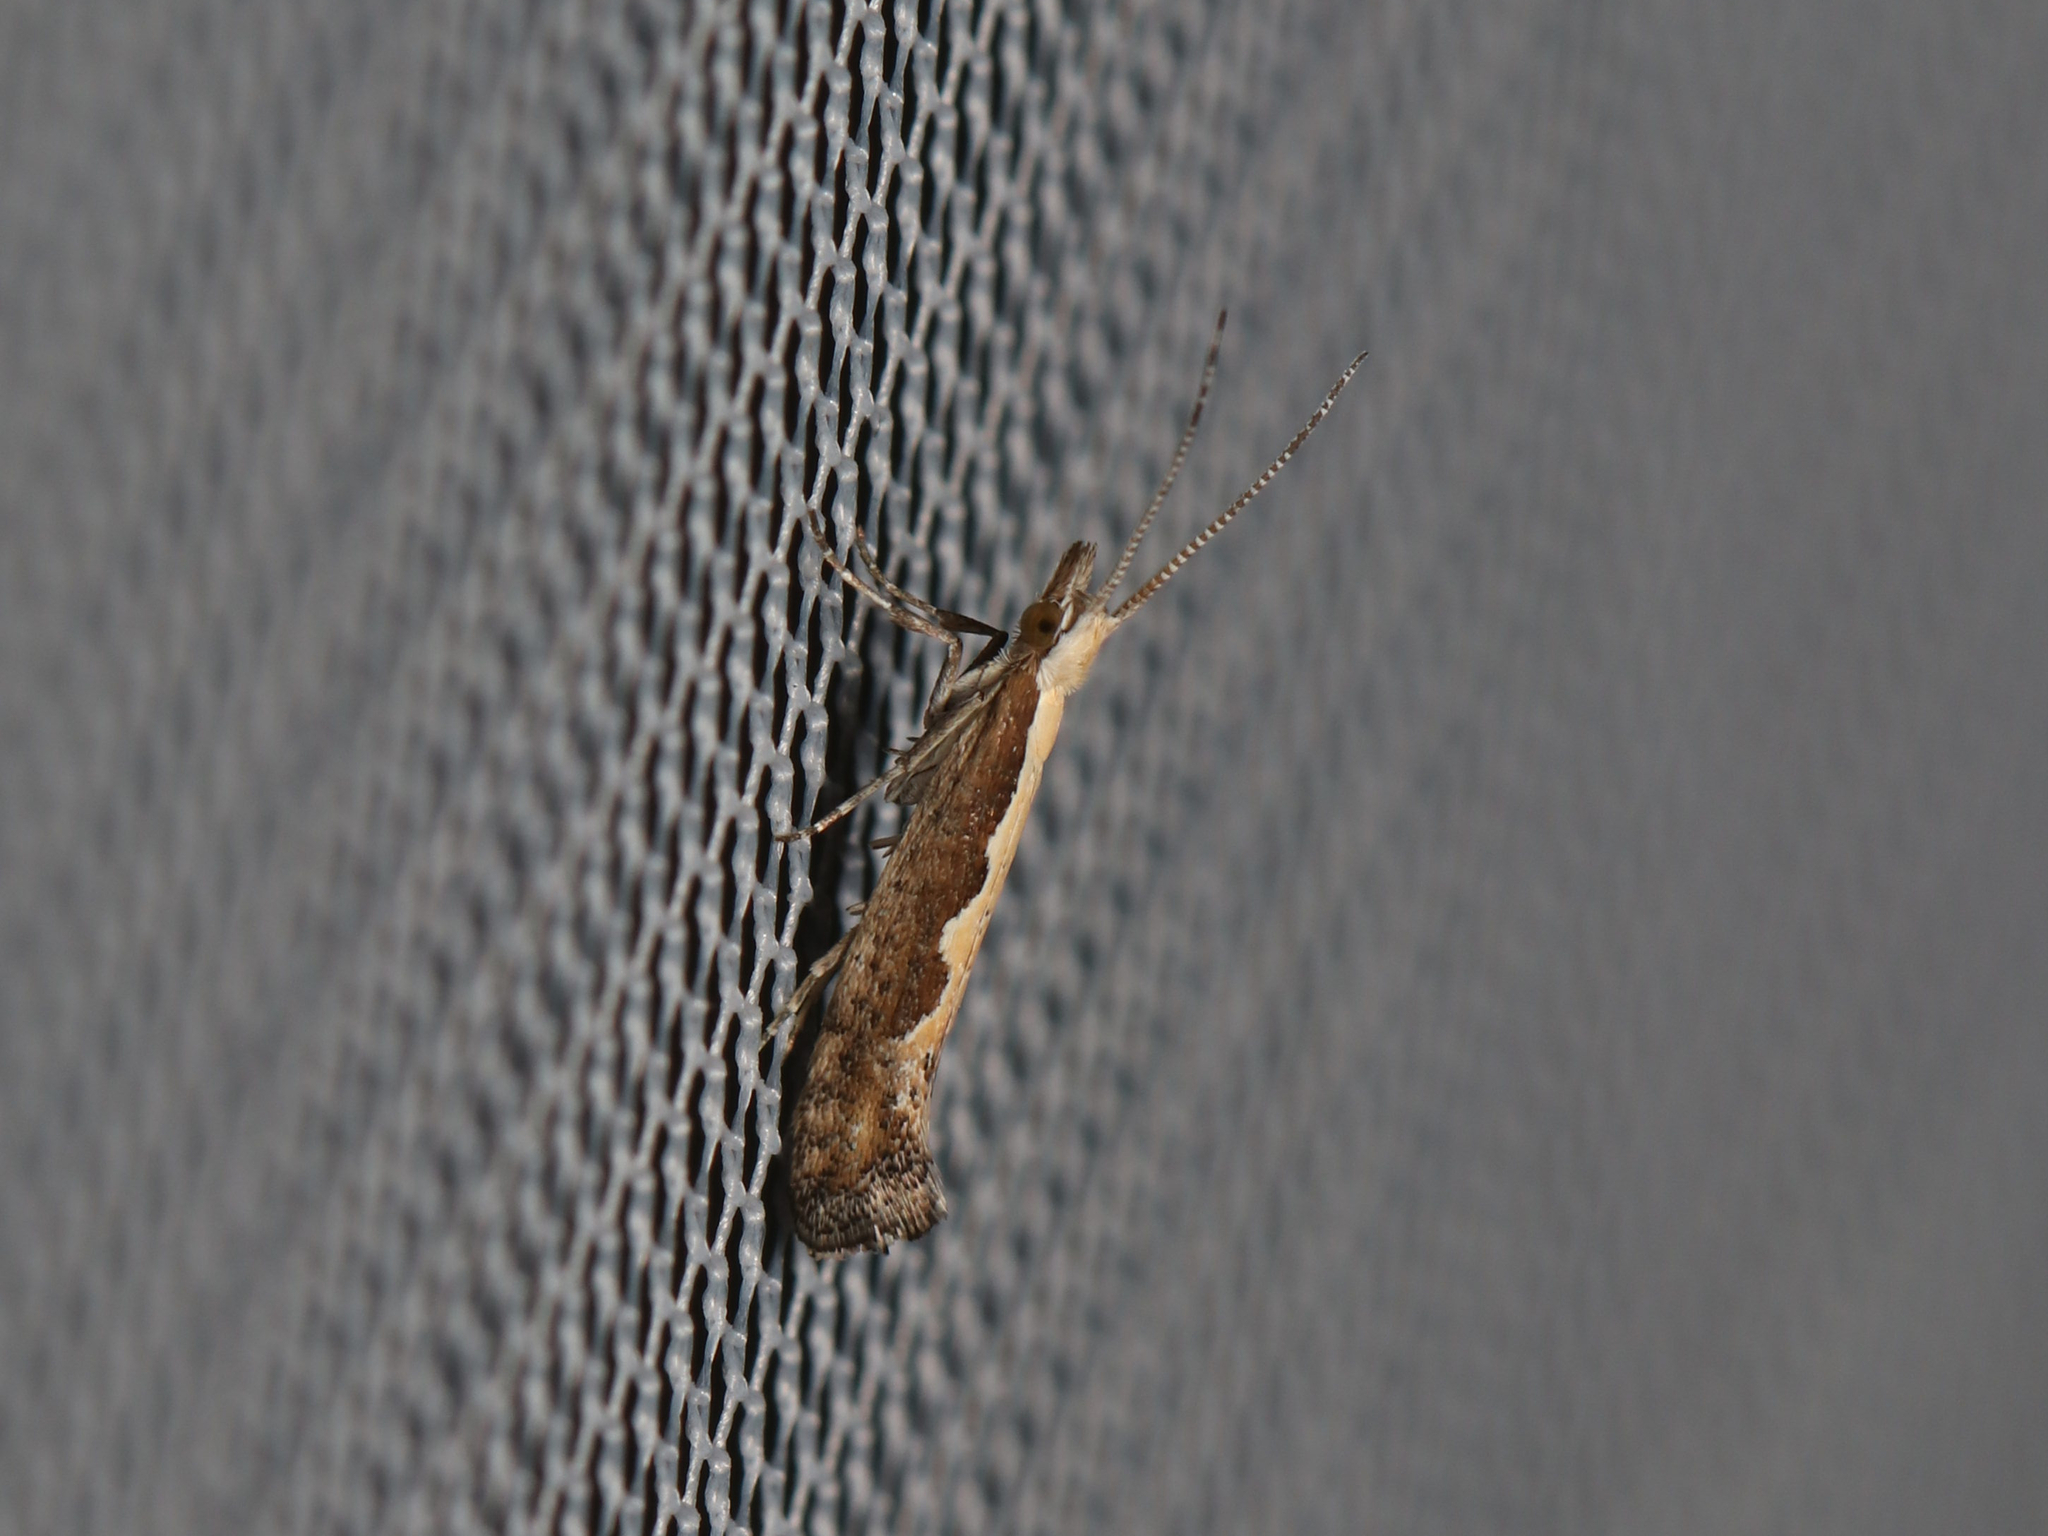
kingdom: Animalia
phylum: Arthropoda
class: Insecta
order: Lepidoptera
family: Plutellidae
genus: Plutella
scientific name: Plutella xylostella
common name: Diamond-back moth
